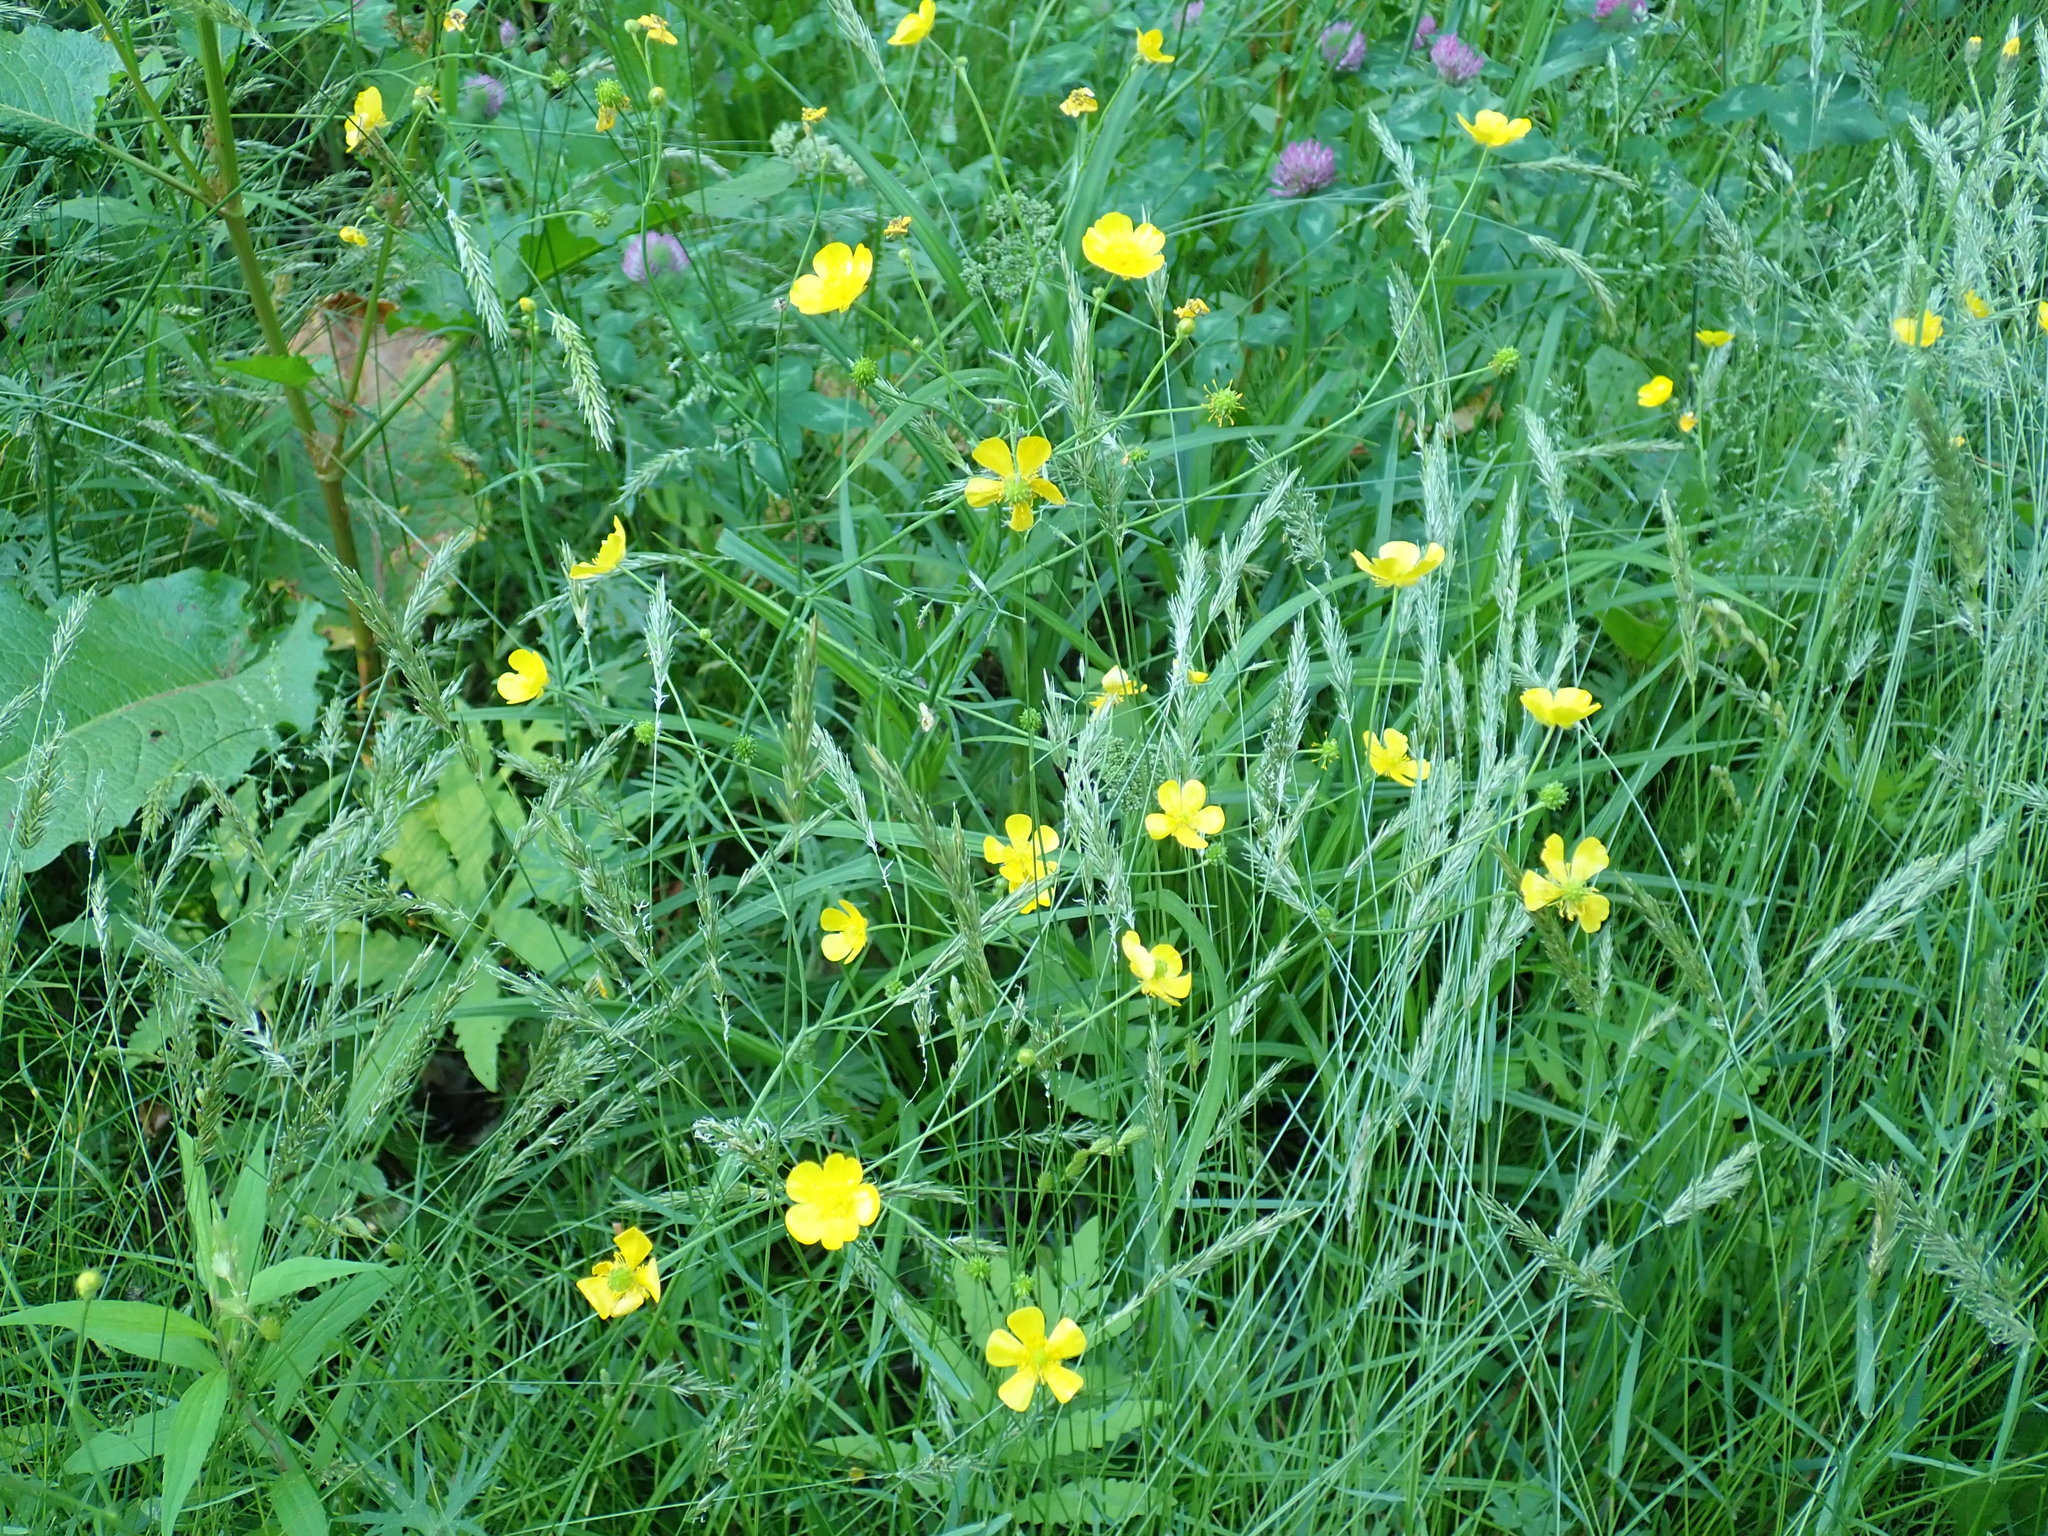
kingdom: Plantae
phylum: Tracheophyta
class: Magnoliopsida
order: Ranunculales
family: Ranunculaceae
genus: Ranunculus
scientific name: Ranunculus acris
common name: Meadow buttercup
